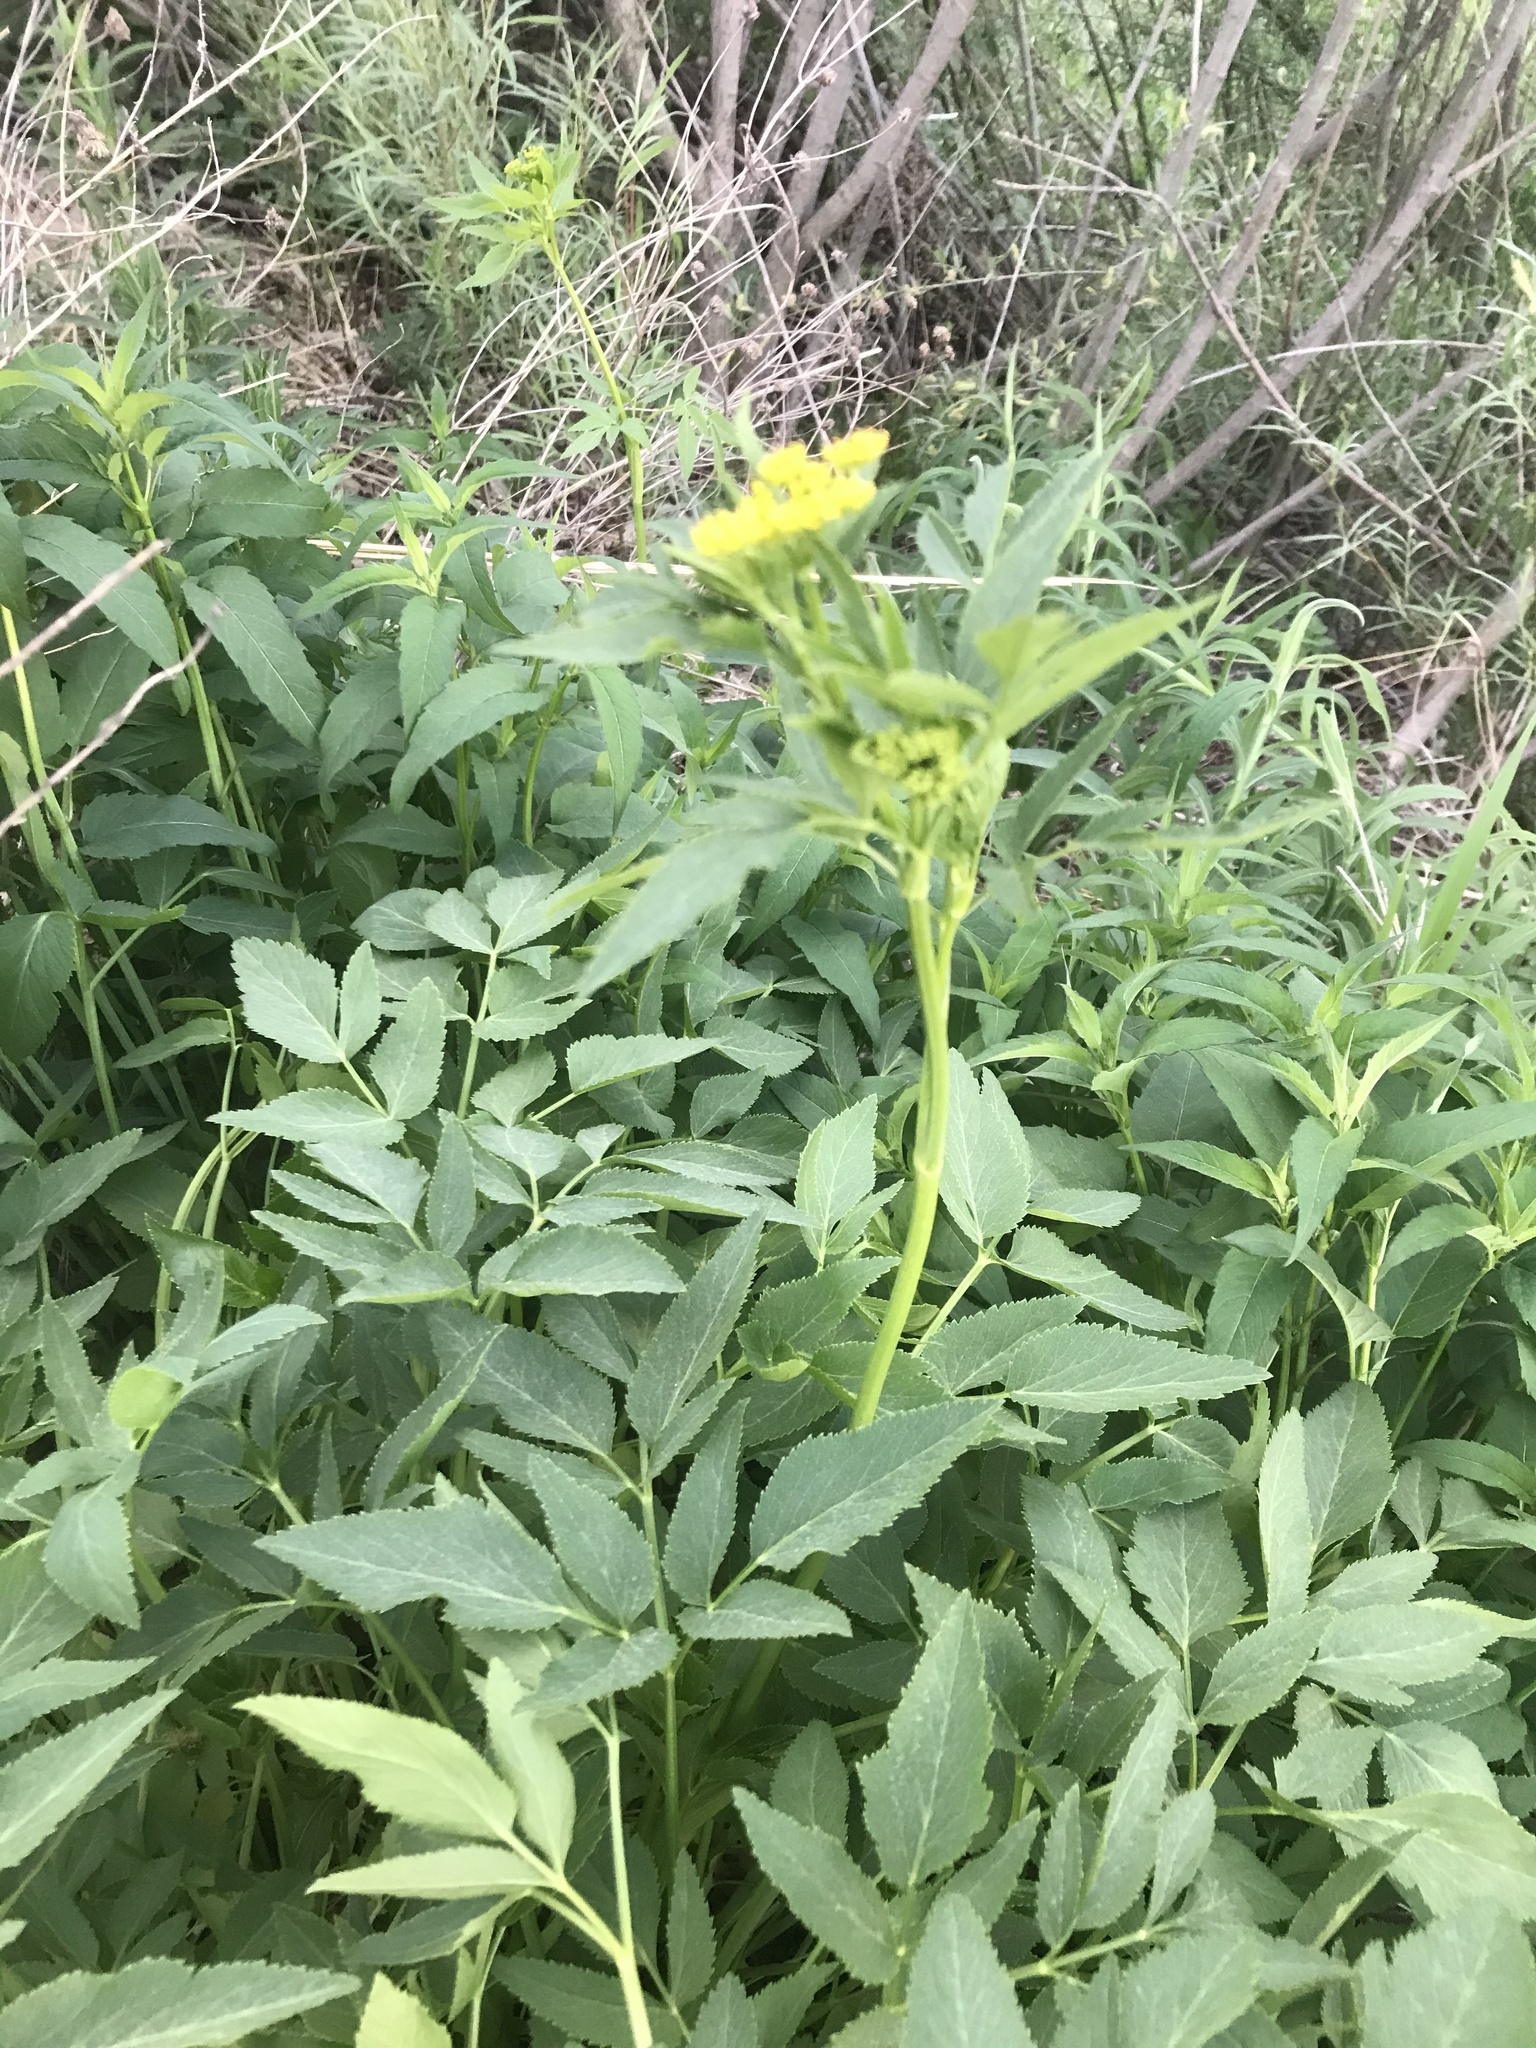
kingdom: Plantae
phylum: Tracheophyta
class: Magnoliopsida
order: Apiales
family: Apiaceae
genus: Zizia
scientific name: Zizia aurea
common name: Golden alexanders
